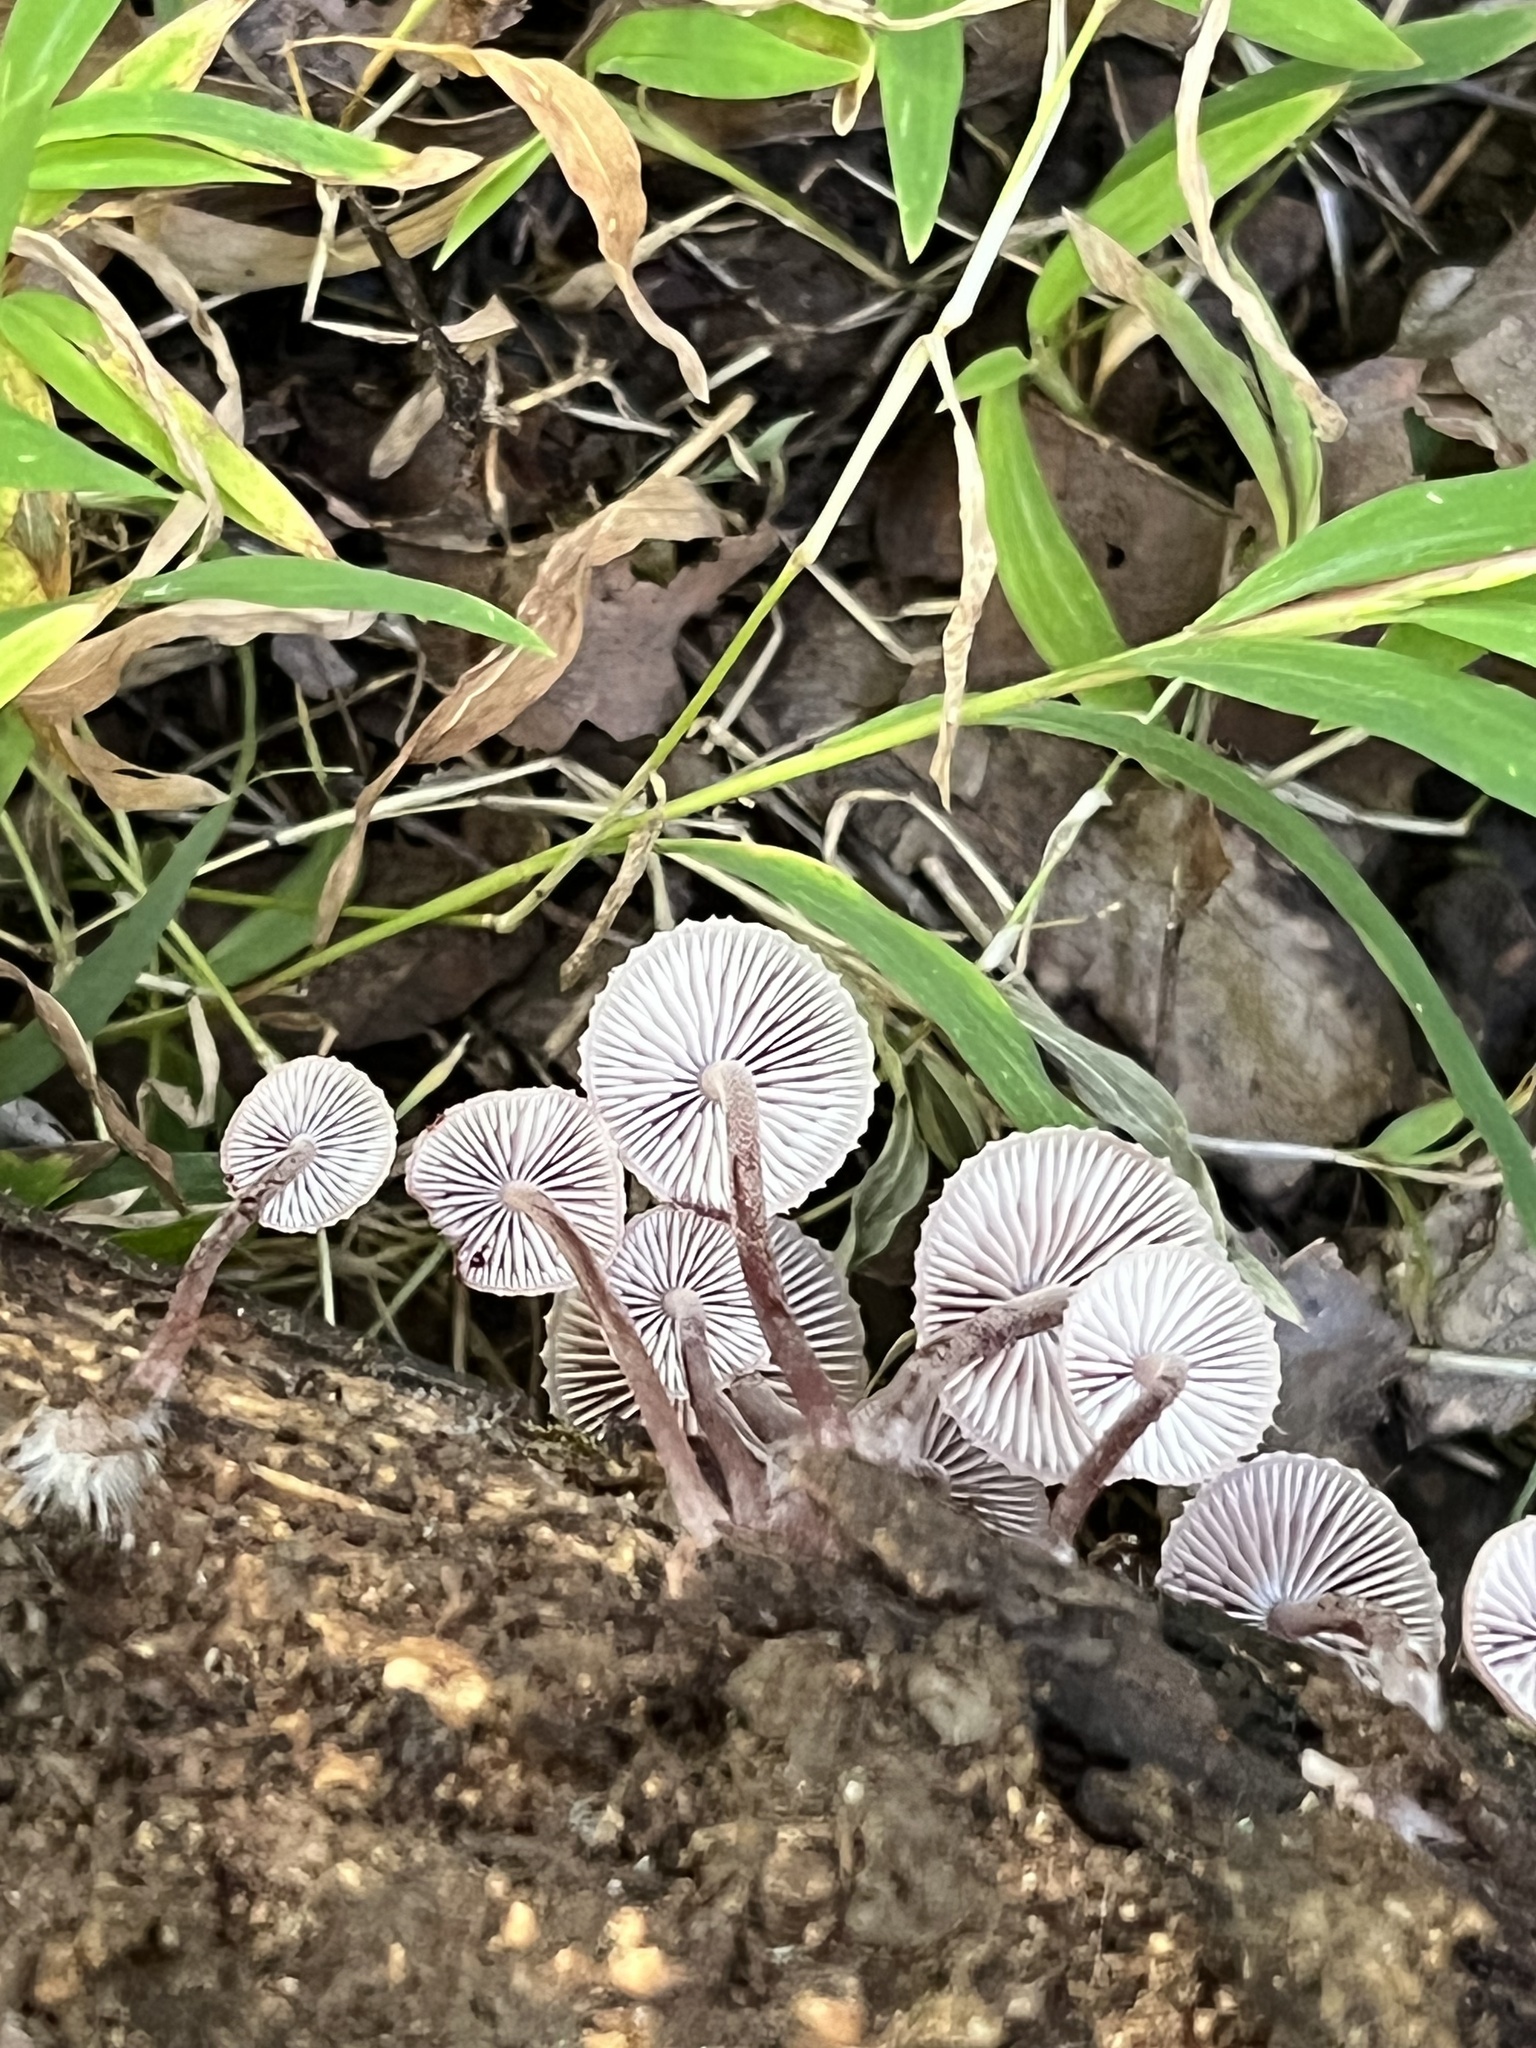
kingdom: Fungi
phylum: Basidiomycota
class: Agaricomycetes
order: Agaricales
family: Mycenaceae
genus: Mycena
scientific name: Mycena haematopus
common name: Burgundydrop bonnet
